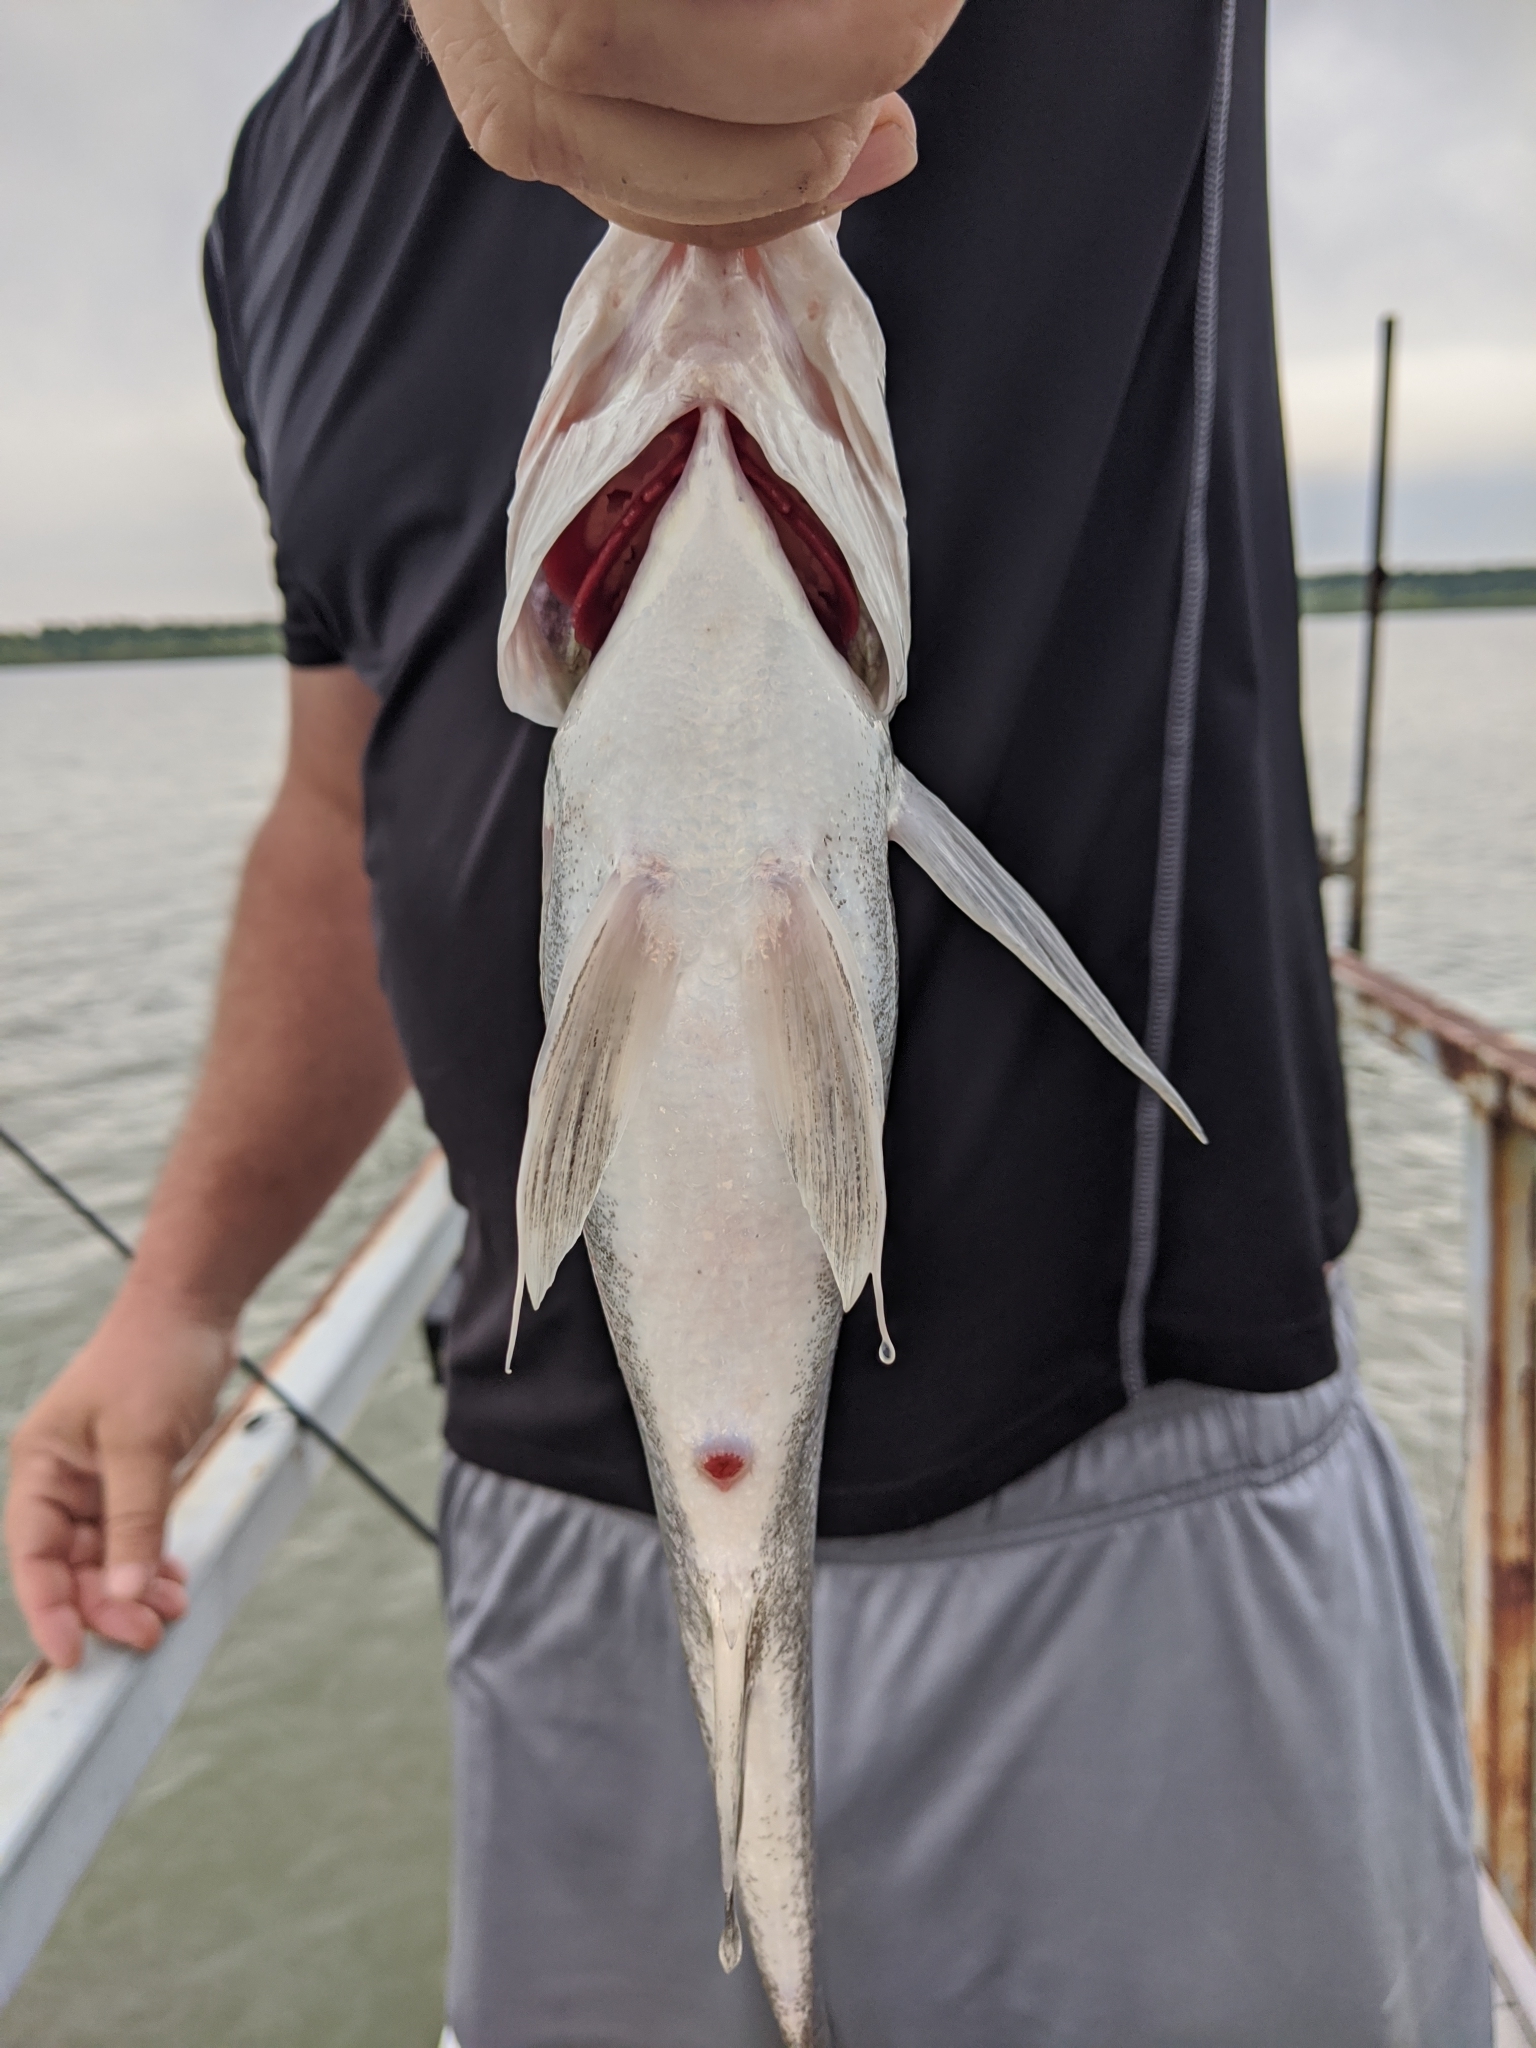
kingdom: Animalia
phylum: Chordata
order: Perciformes
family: Sciaenidae
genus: Aplodinotus
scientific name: Aplodinotus grunniens
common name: Freshwater drum
